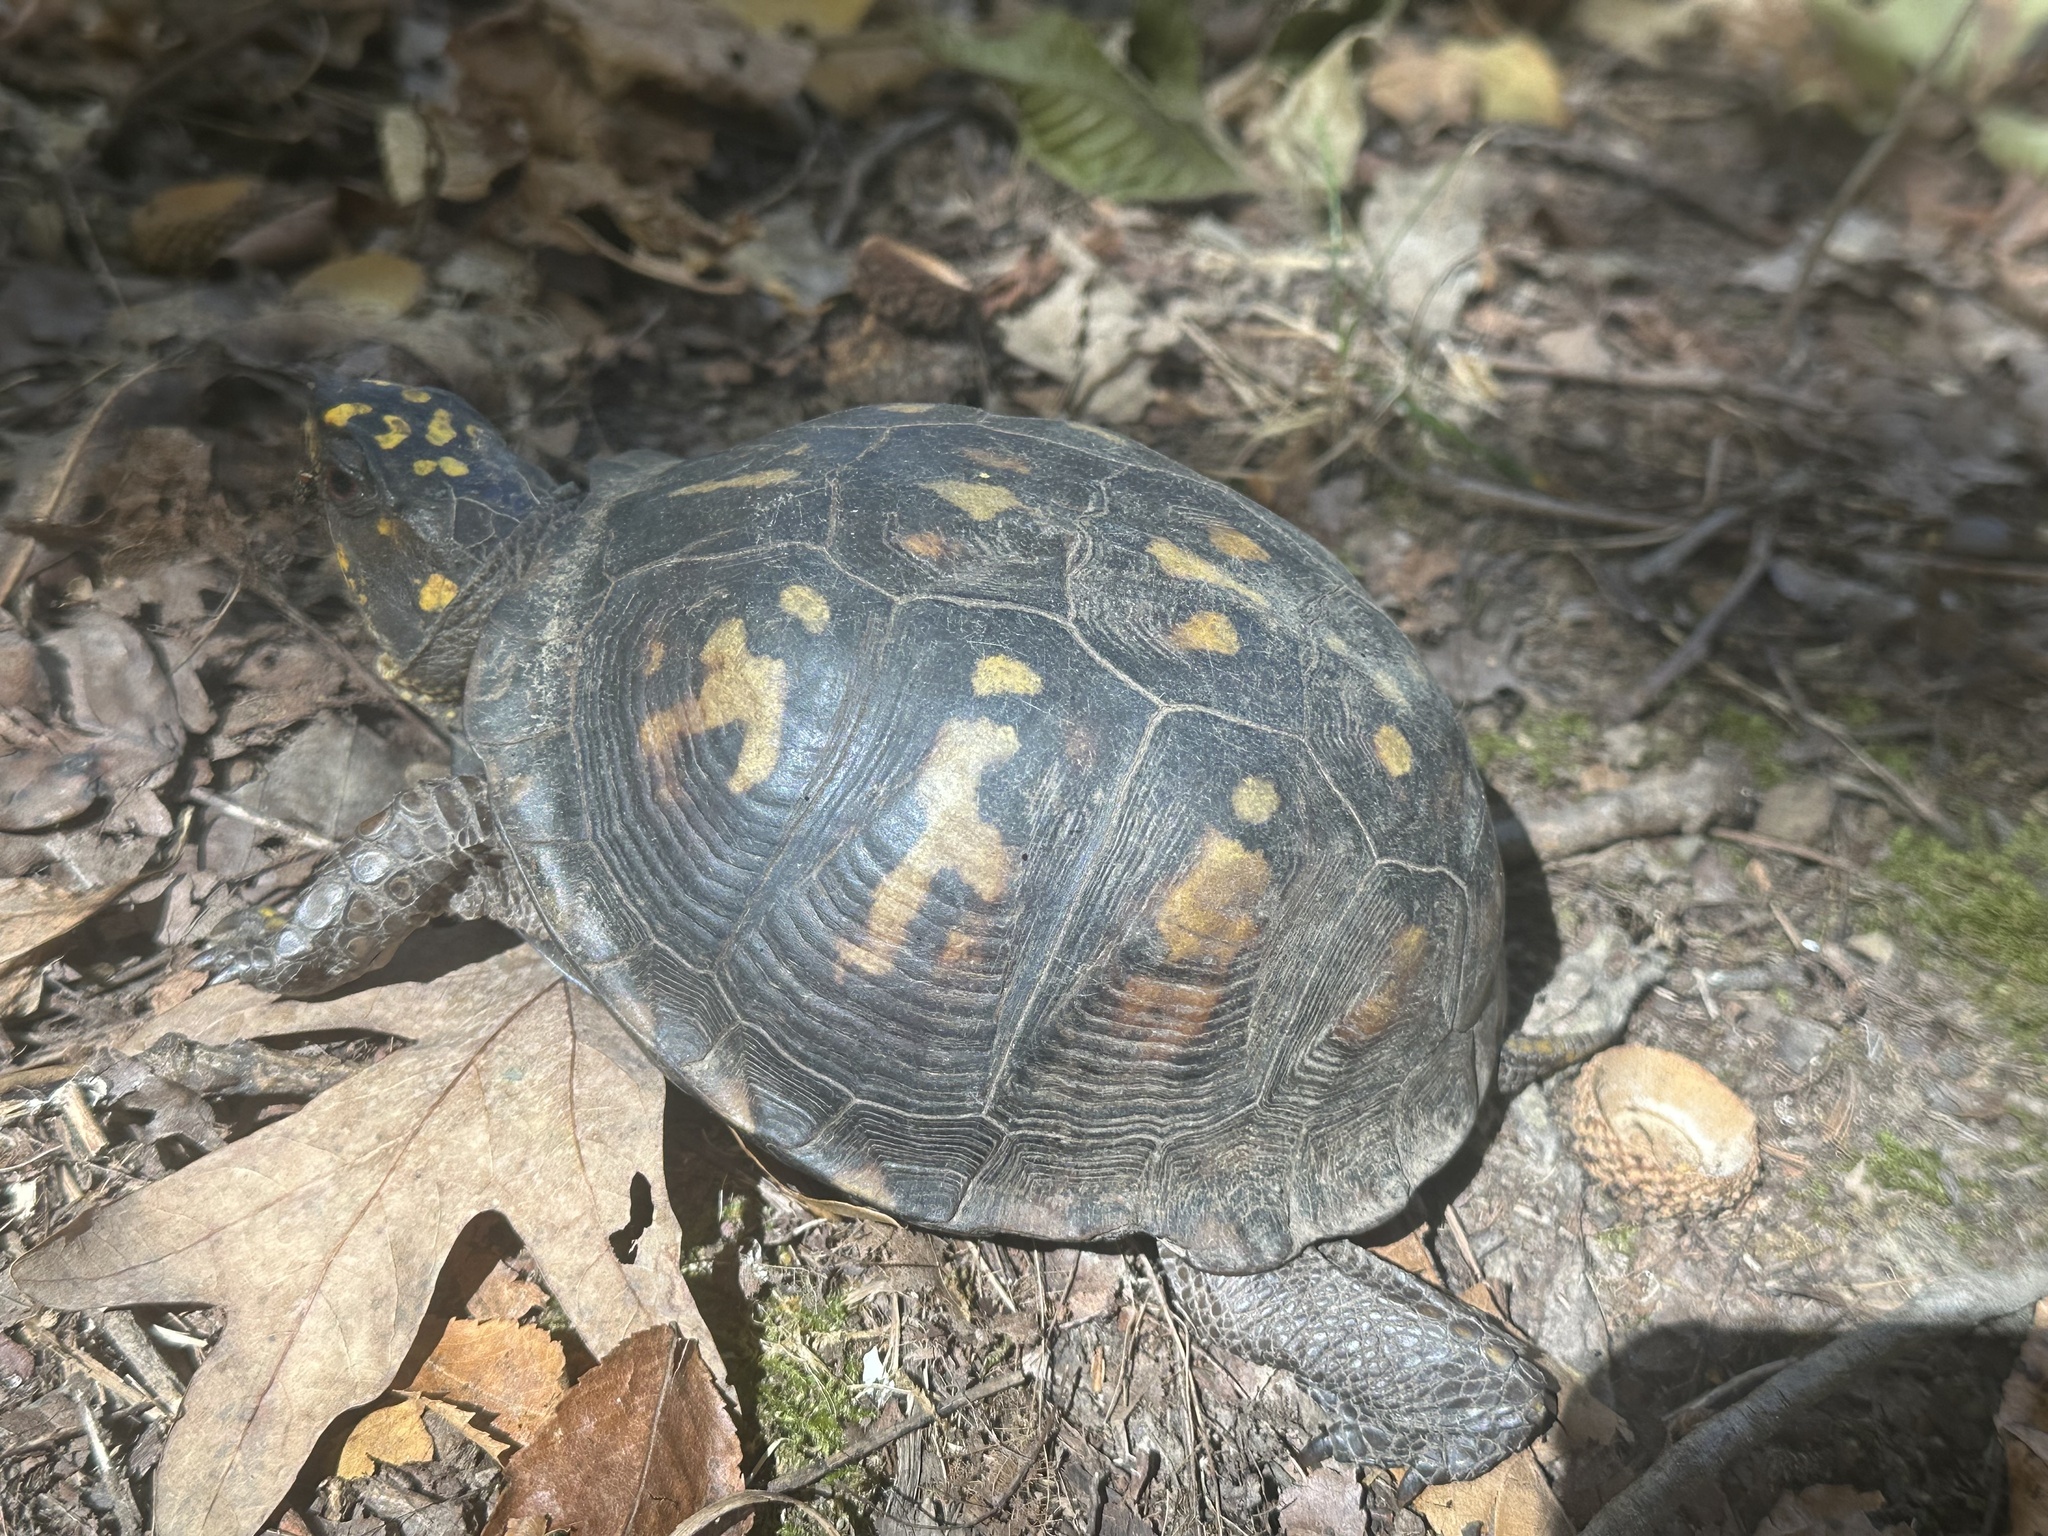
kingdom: Animalia
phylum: Chordata
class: Testudines
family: Emydidae
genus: Terrapene
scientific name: Terrapene carolina
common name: Common box turtle
